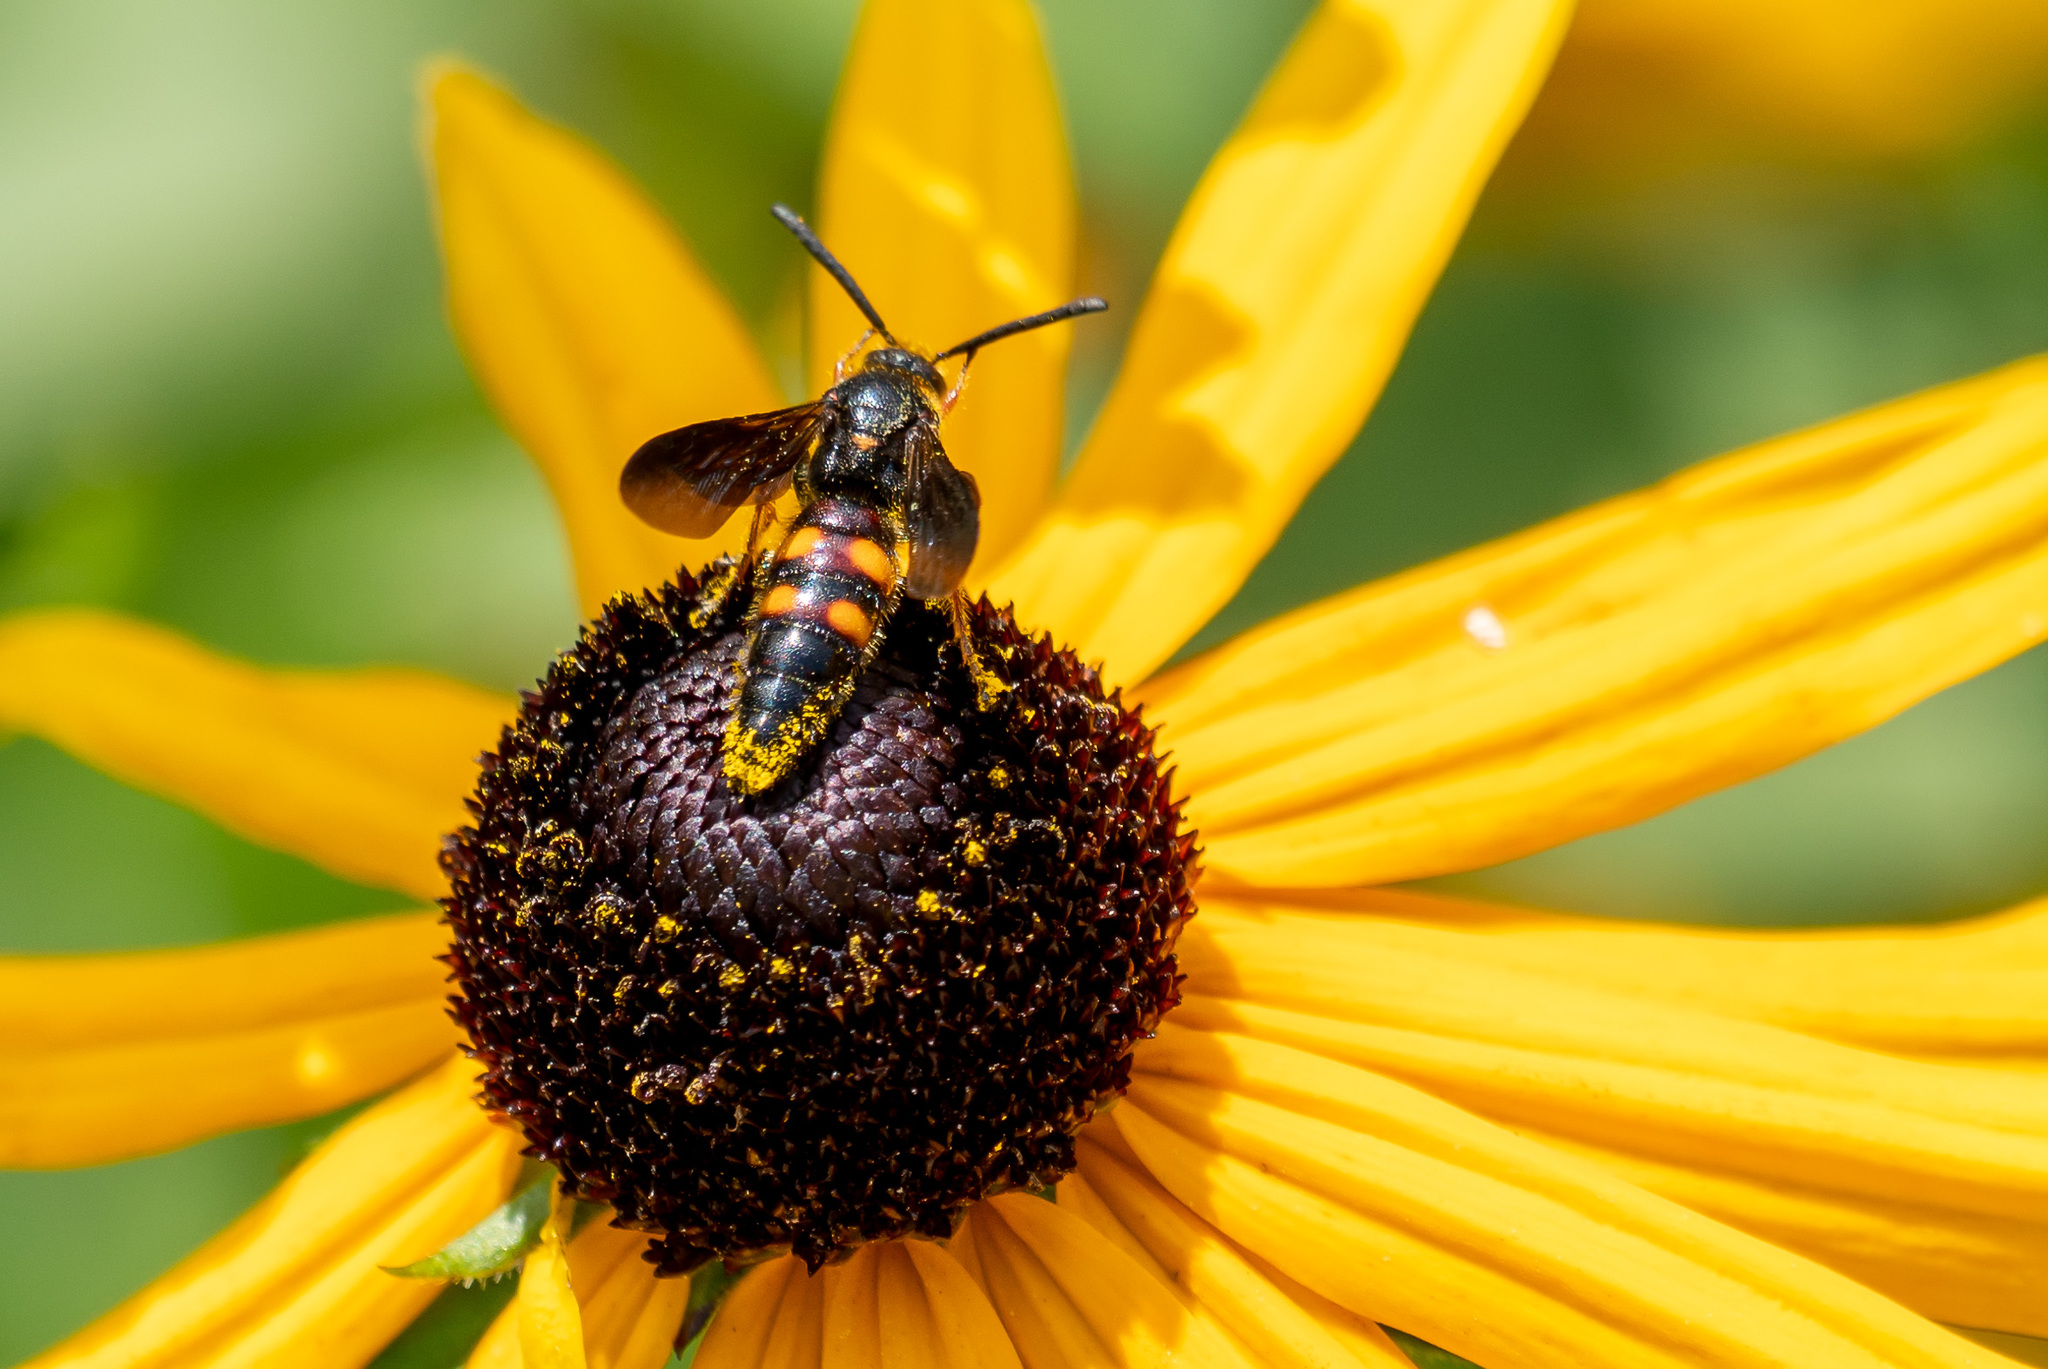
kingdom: Animalia
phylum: Arthropoda
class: Insecta
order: Hymenoptera
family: Scoliidae
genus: Scolia
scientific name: Scolia nobilitata
